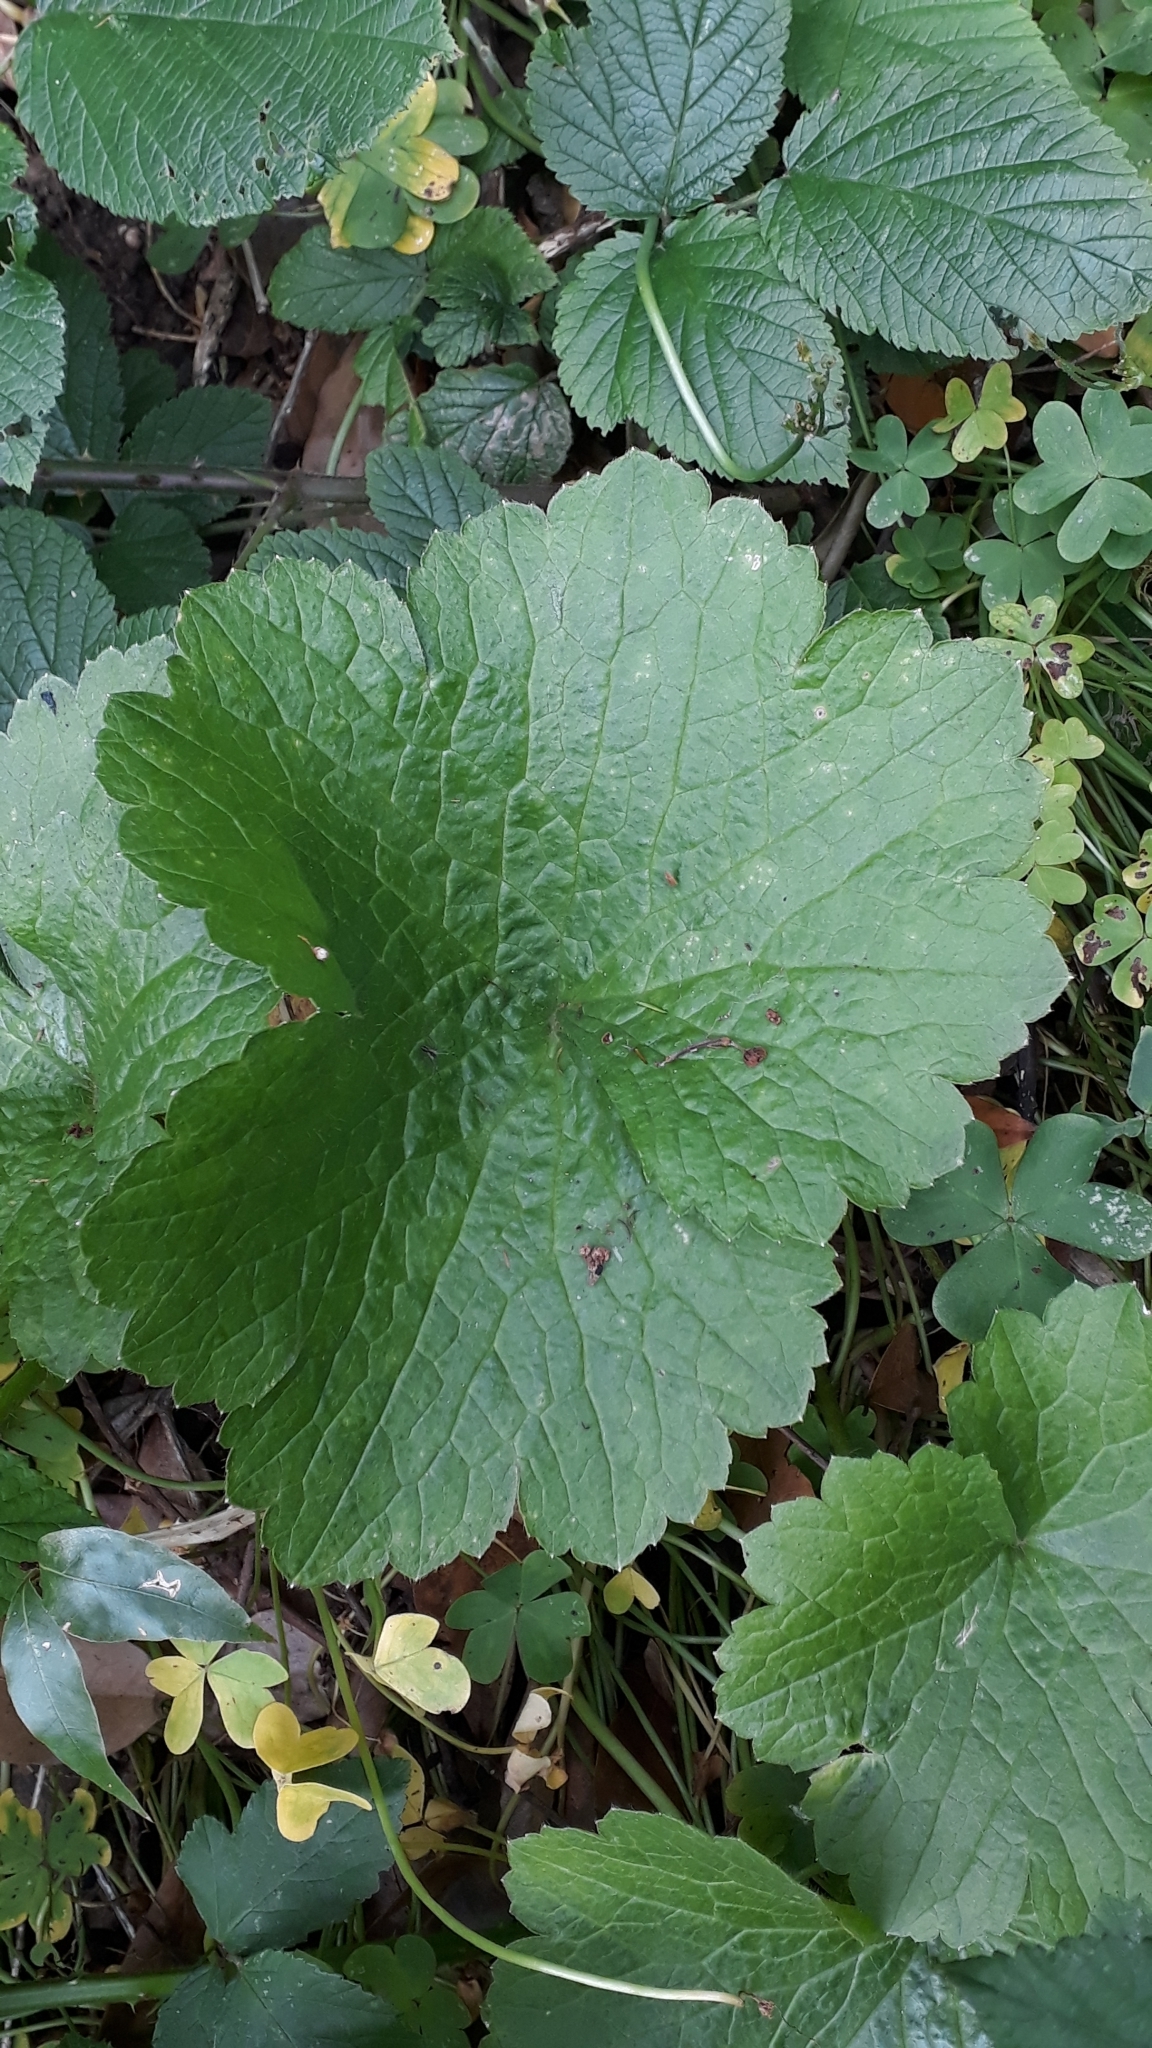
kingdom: Plantae
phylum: Tracheophyta
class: Magnoliopsida
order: Ranunculales
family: Ranunculaceae
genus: Ranunculus
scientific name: Ranunculus cortusifolius
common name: Azores buttercup
